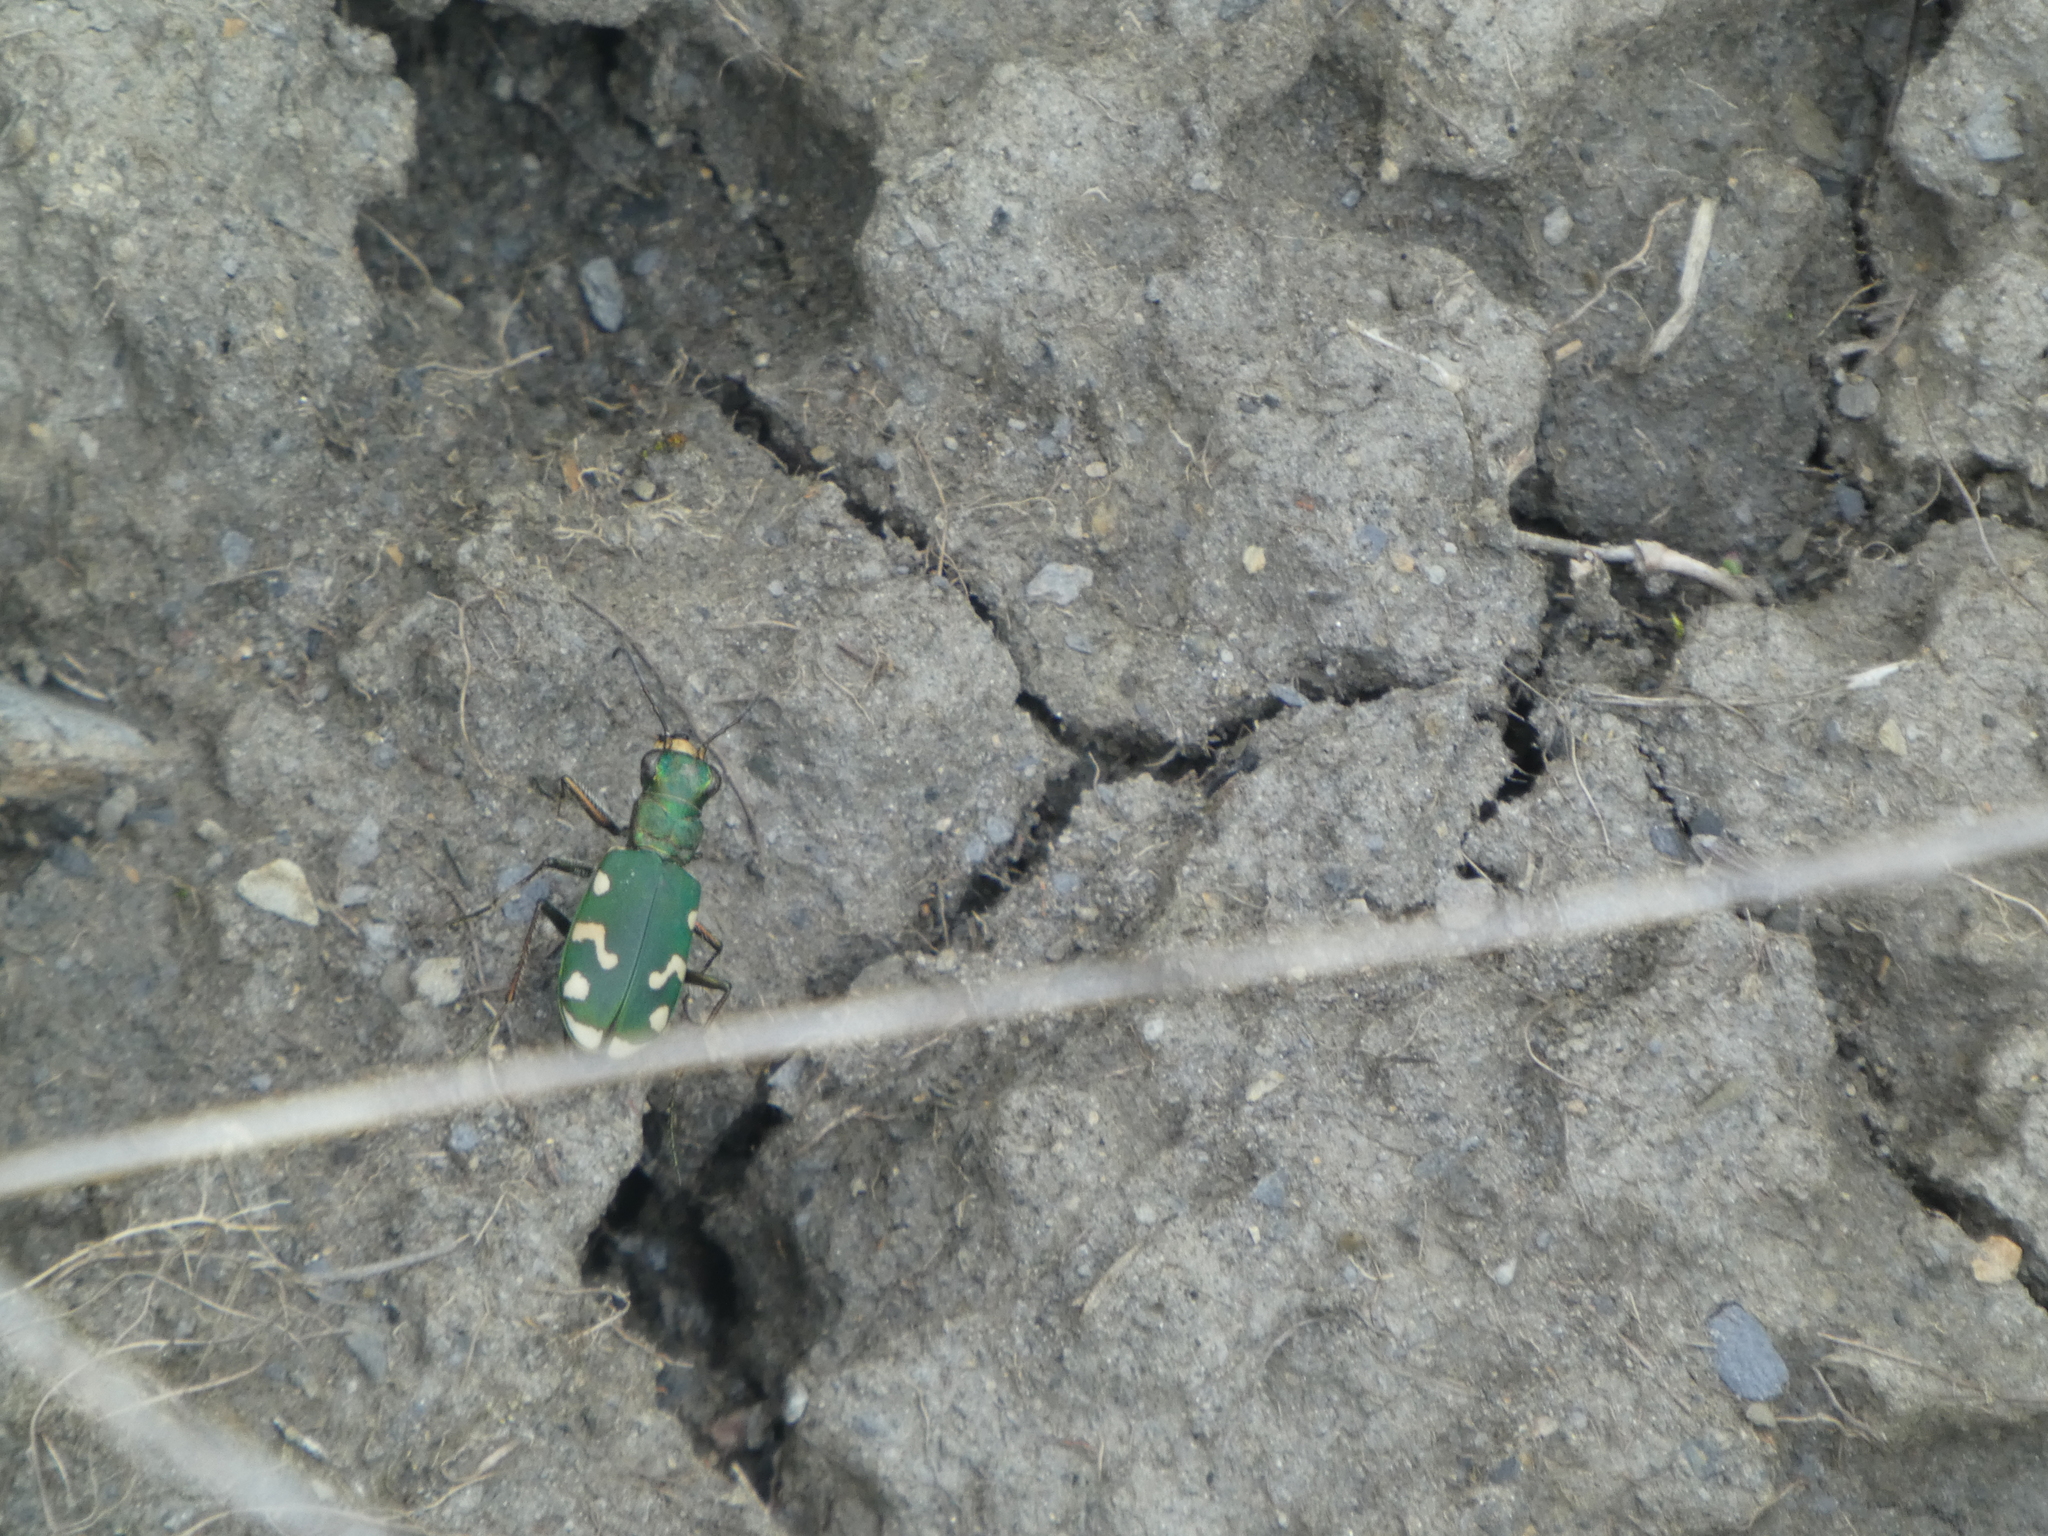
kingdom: Animalia
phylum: Arthropoda
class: Insecta
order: Coleoptera
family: Carabidae
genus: Cicindela
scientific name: Cicindela gallica
